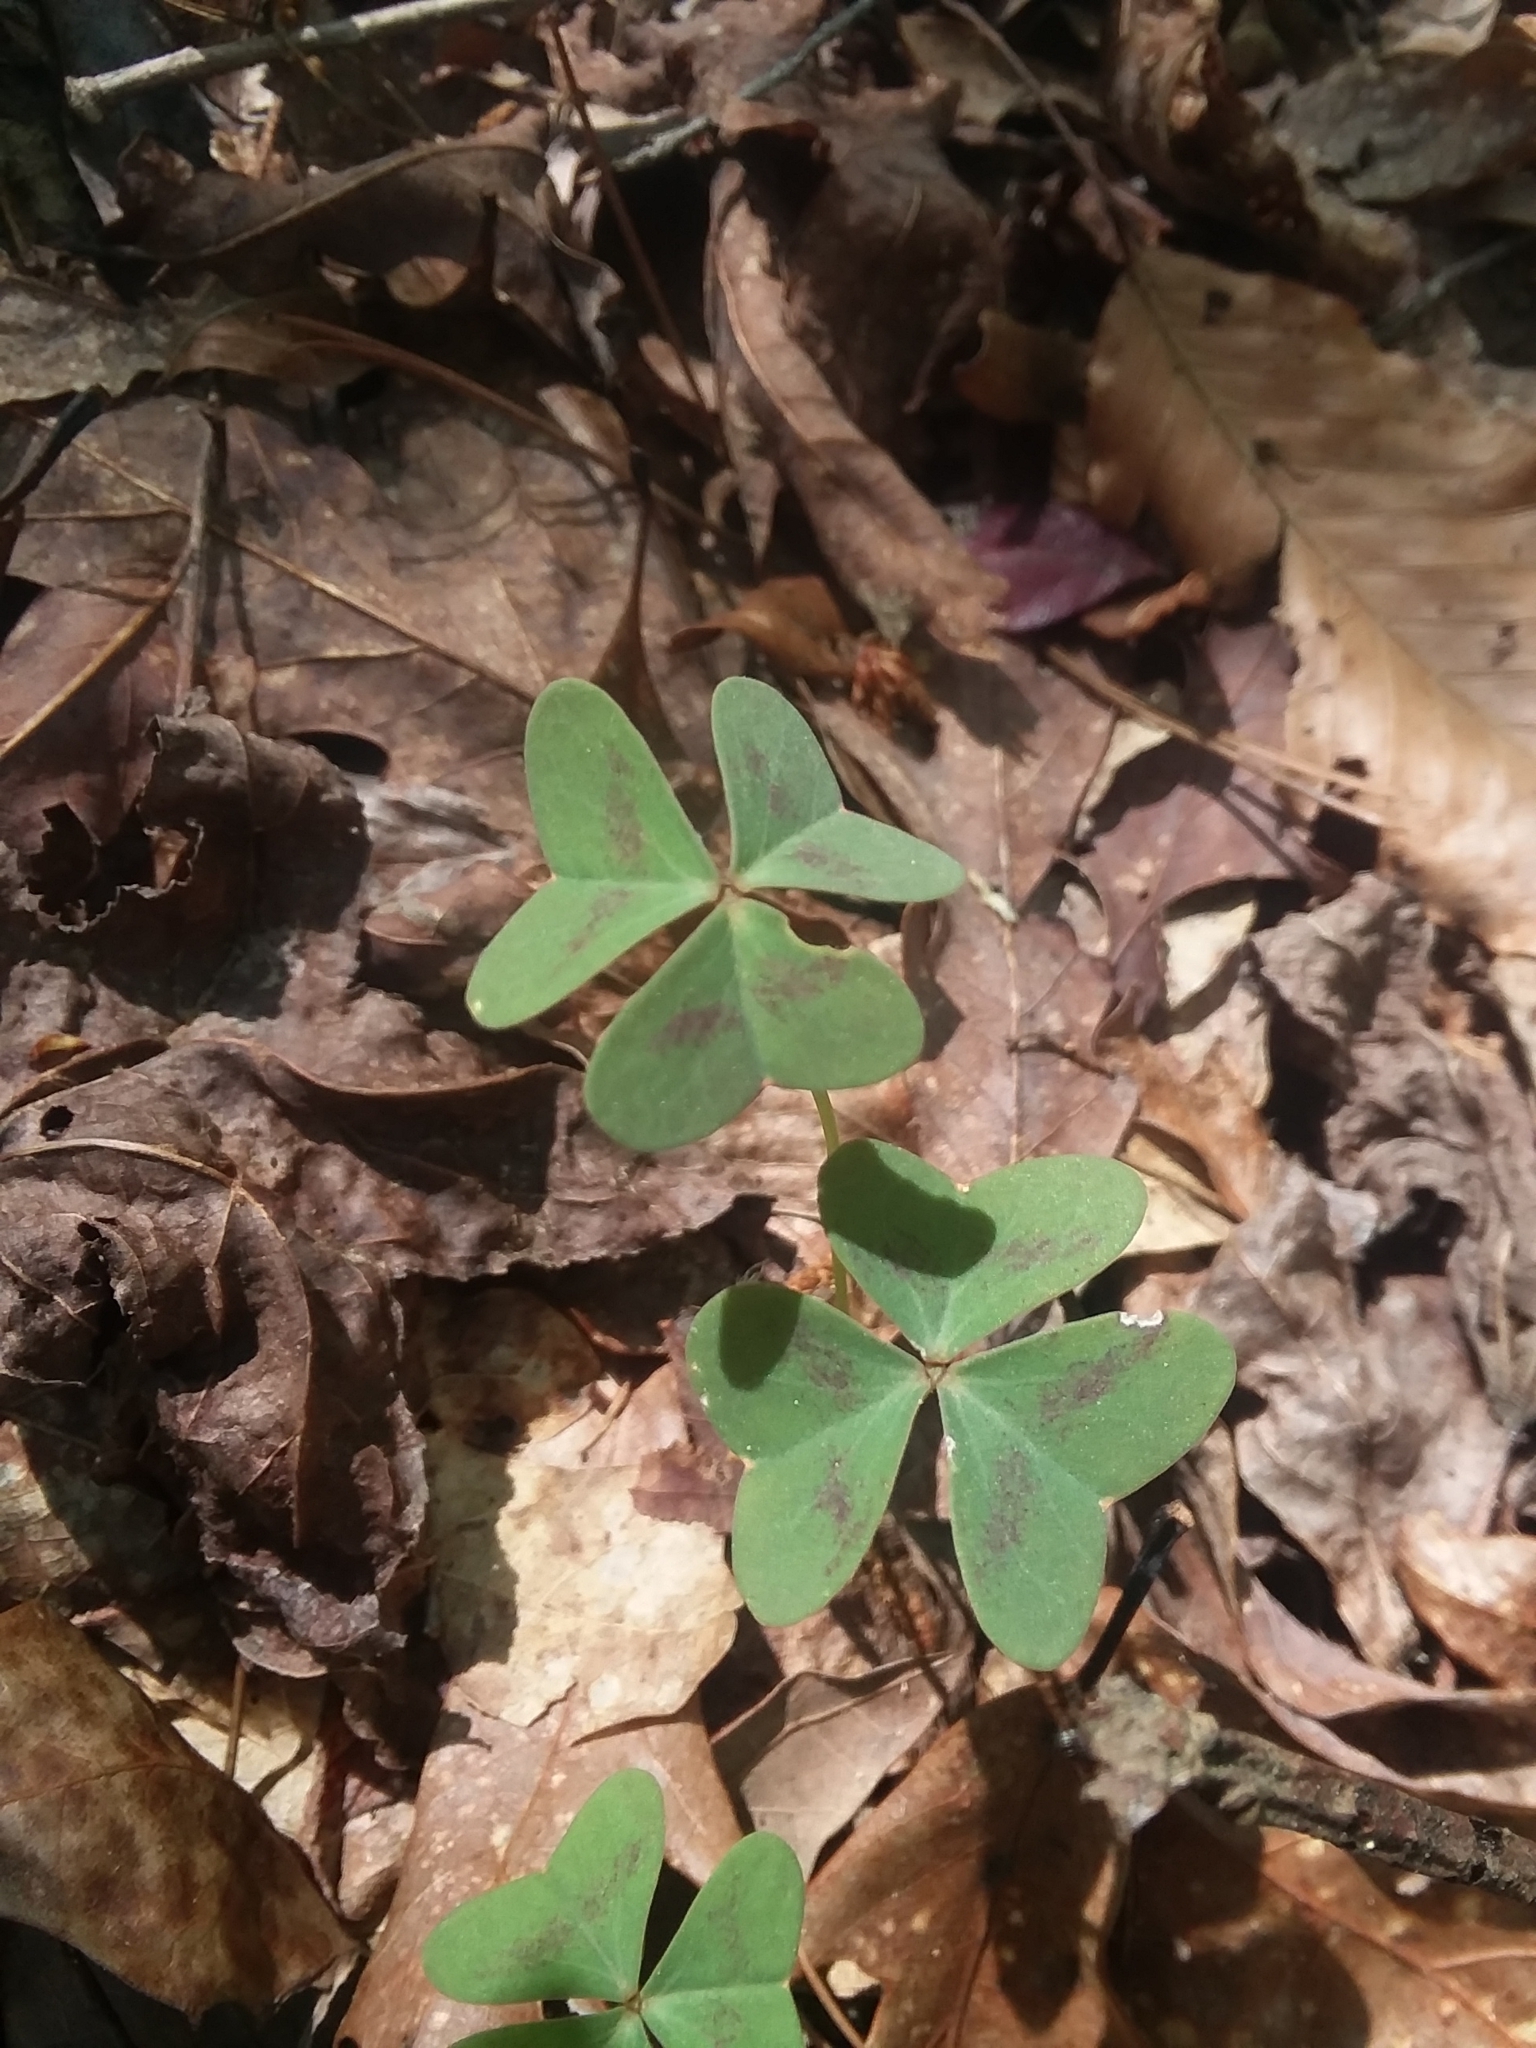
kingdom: Plantae
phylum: Tracheophyta
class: Magnoliopsida
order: Oxalidales
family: Oxalidaceae
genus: Oxalis
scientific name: Oxalis violacea
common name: Violet wood-sorrel
